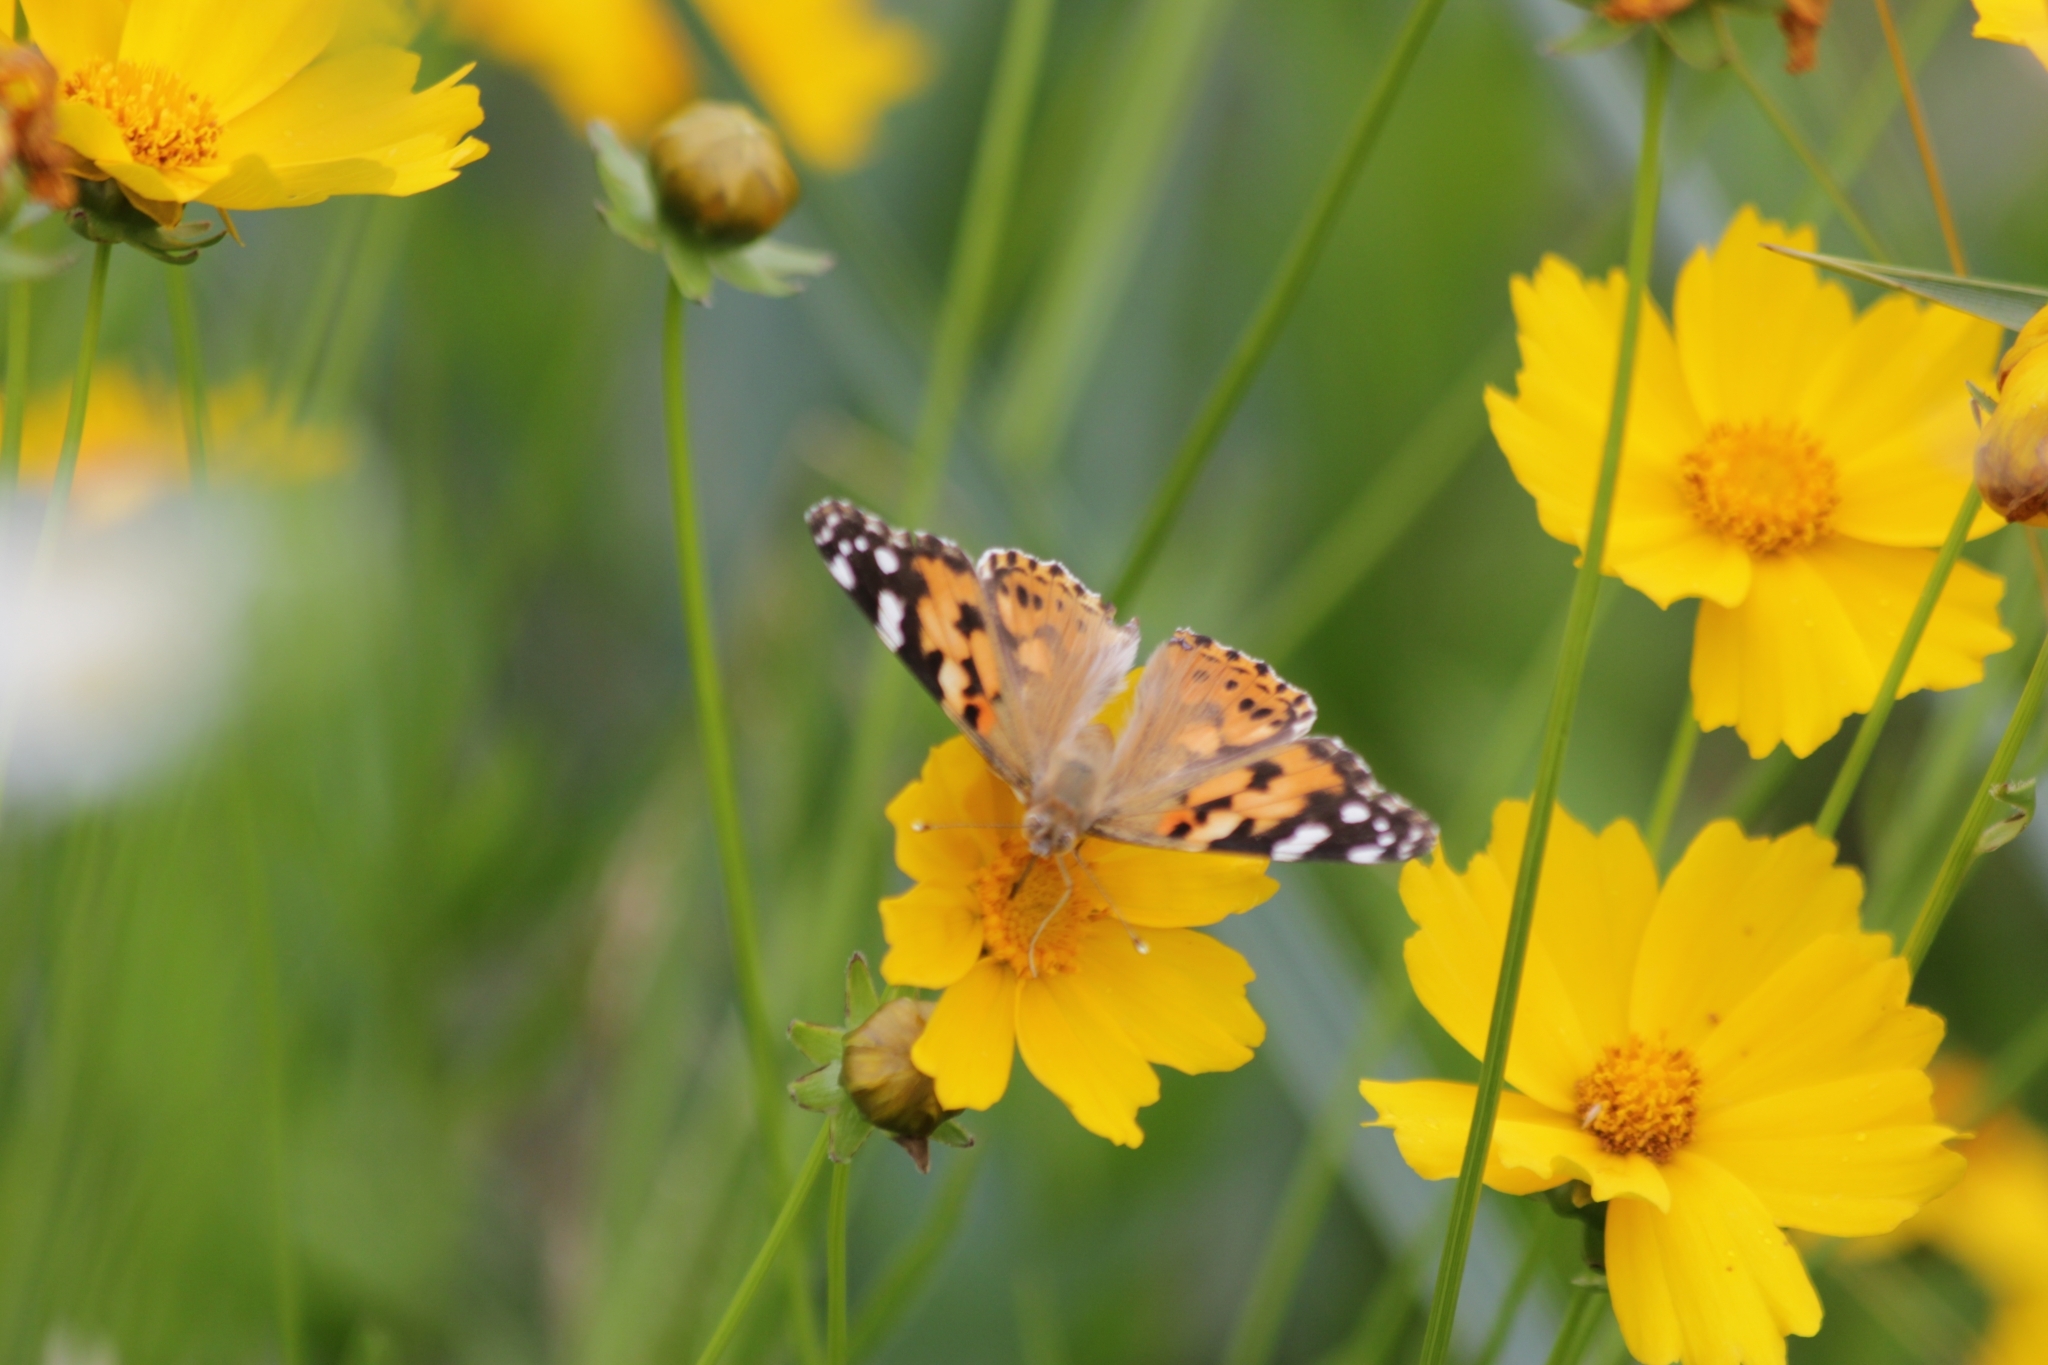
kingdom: Animalia
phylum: Arthropoda
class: Insecta
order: Lepidoptera
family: Nymphalidae
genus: Vanessa
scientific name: Vanessa cardui
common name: Painted lady
